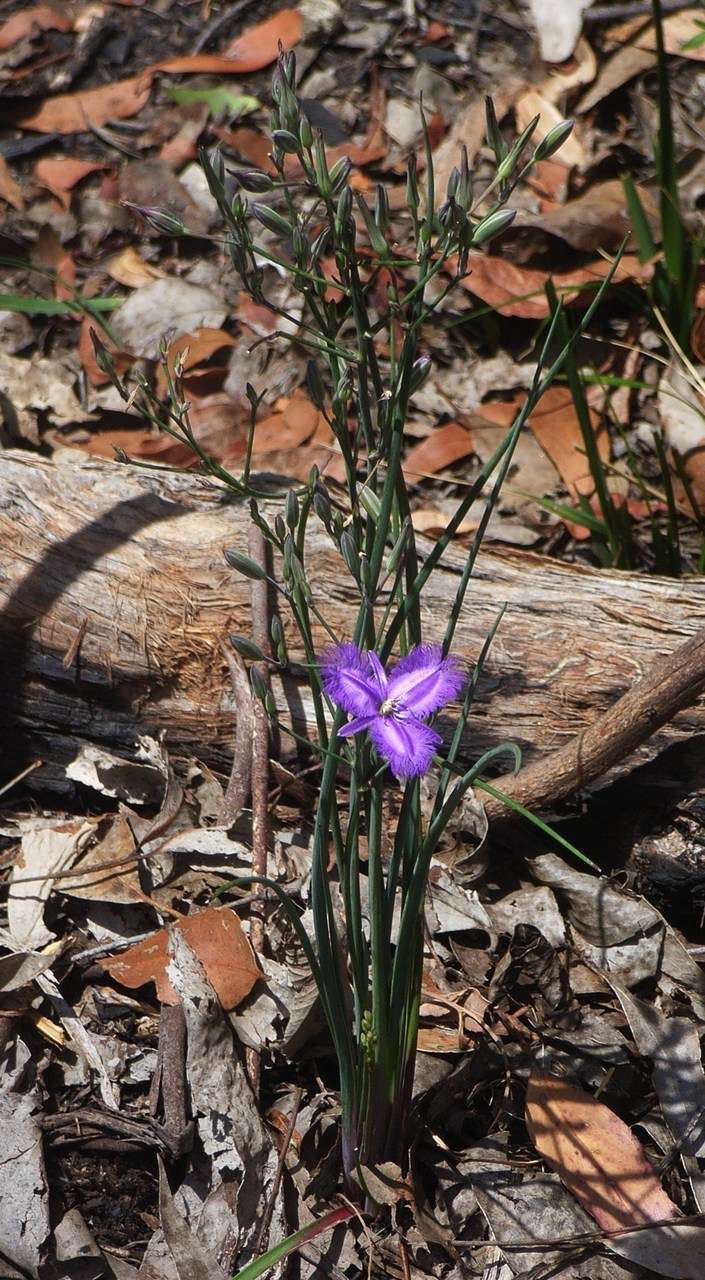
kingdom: Plantae
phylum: Tracheophyta
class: Liliopsida
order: Asparagales
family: Asparagaceae
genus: Thysanotus
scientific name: Thysanotus tuberosus
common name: Common fringed-lily
